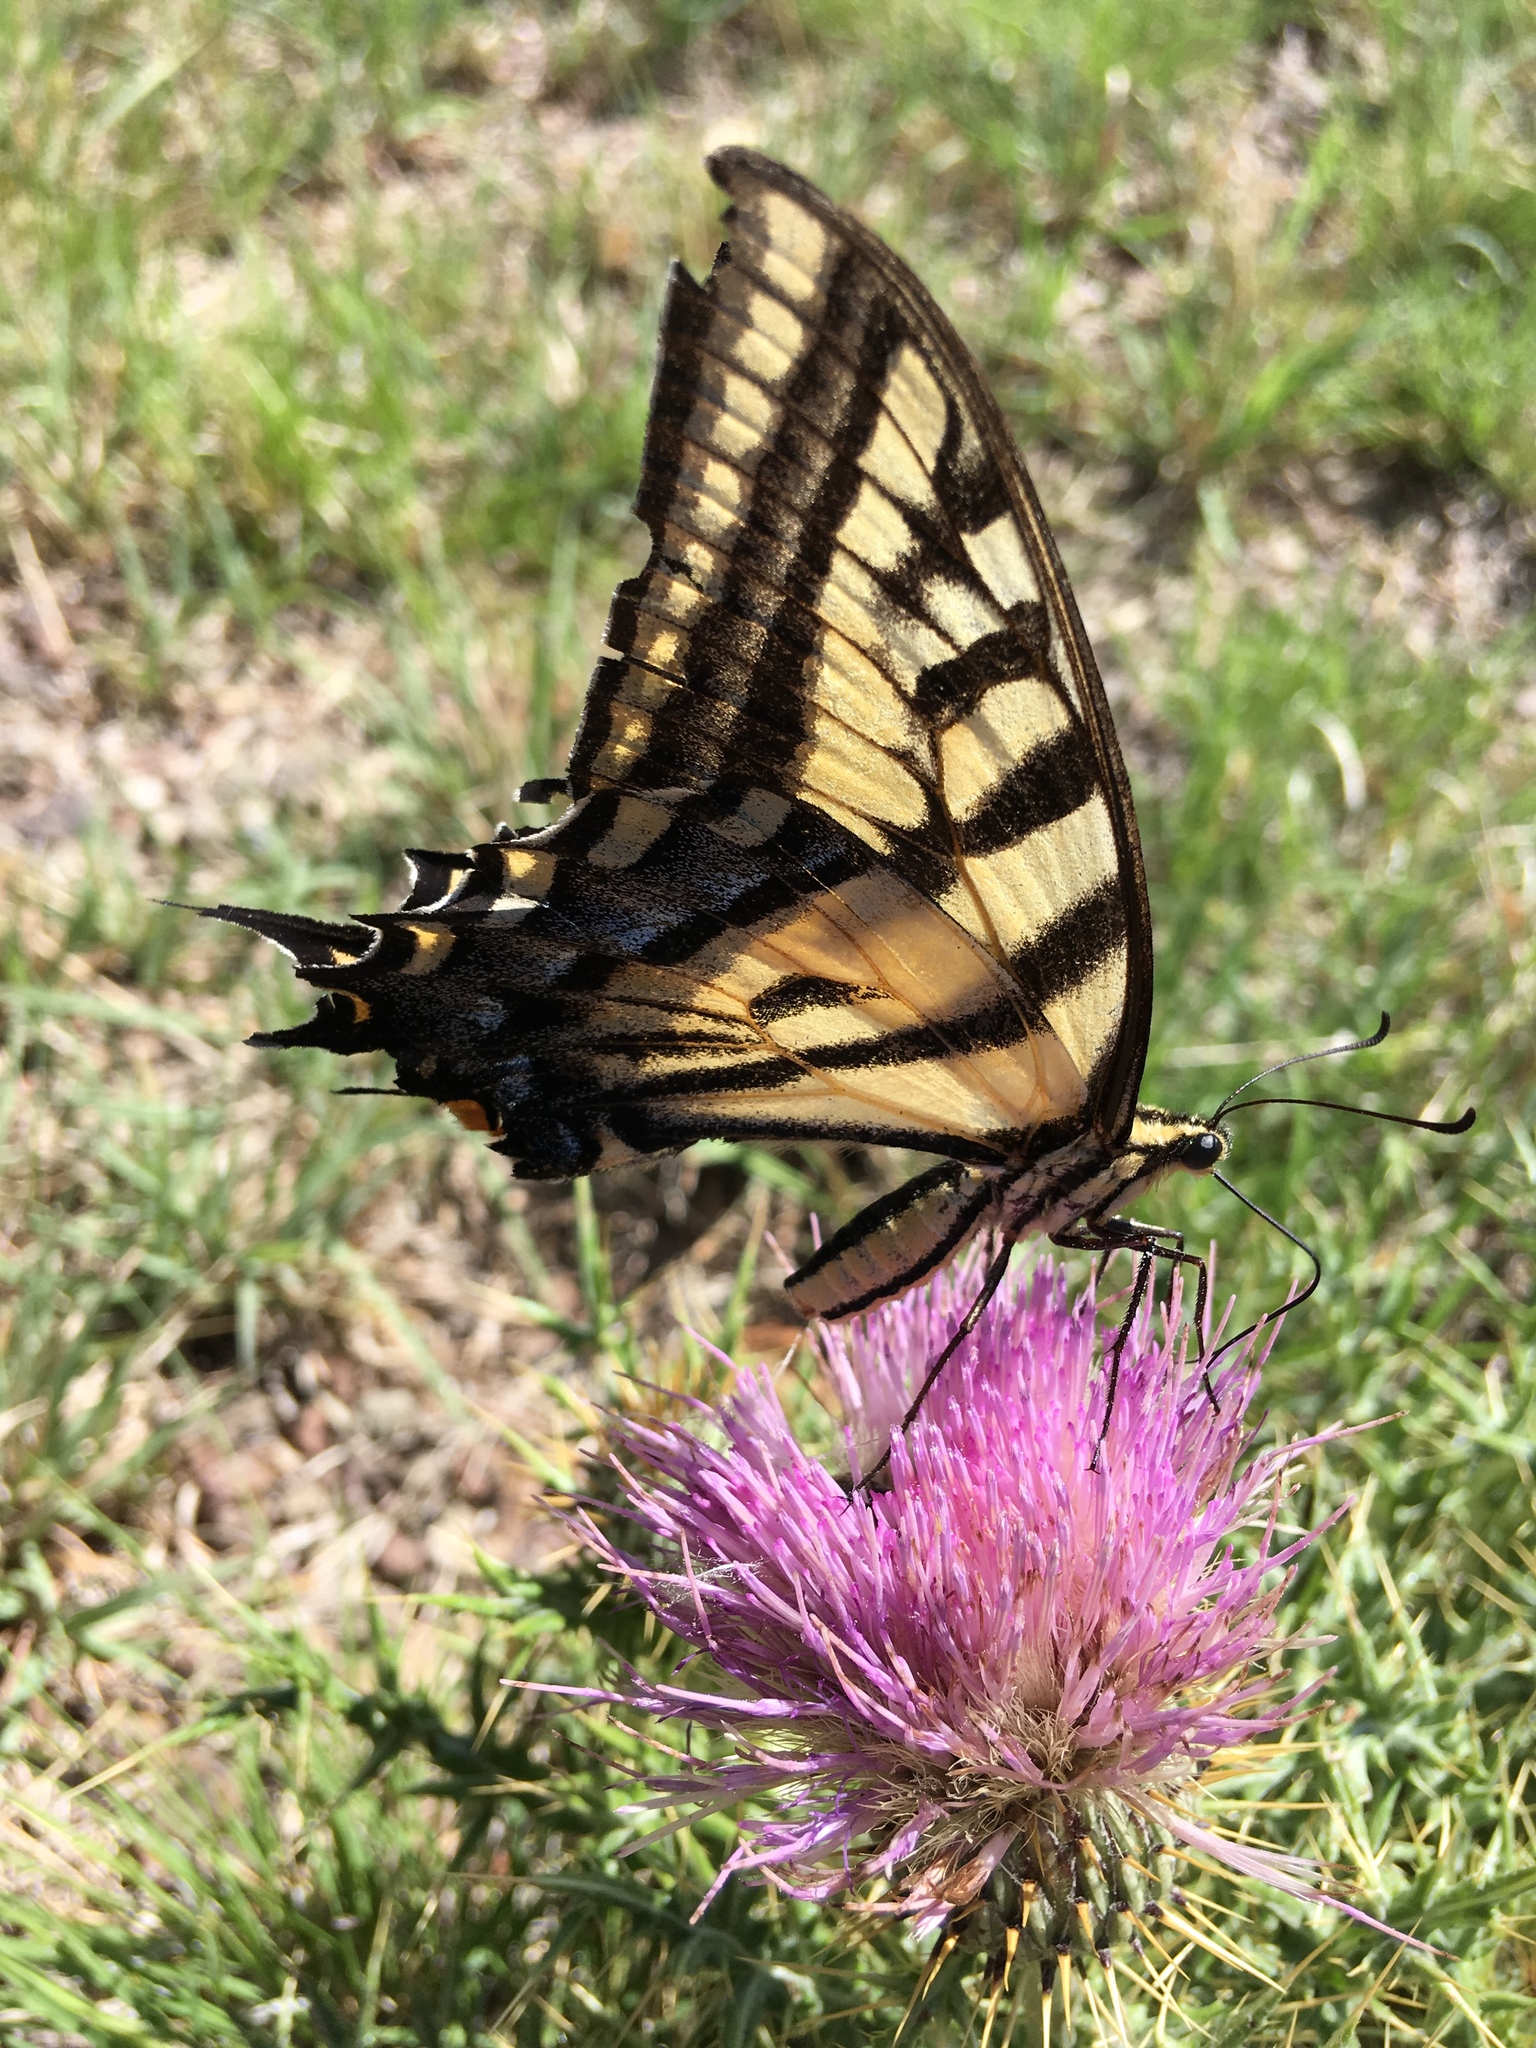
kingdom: Animalia
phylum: Arthropoda
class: Insecta
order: Lepidoptera
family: Papilionidae
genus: Papilio
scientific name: Papilio multicaudata
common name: Two-tailed tiger swallowtail
